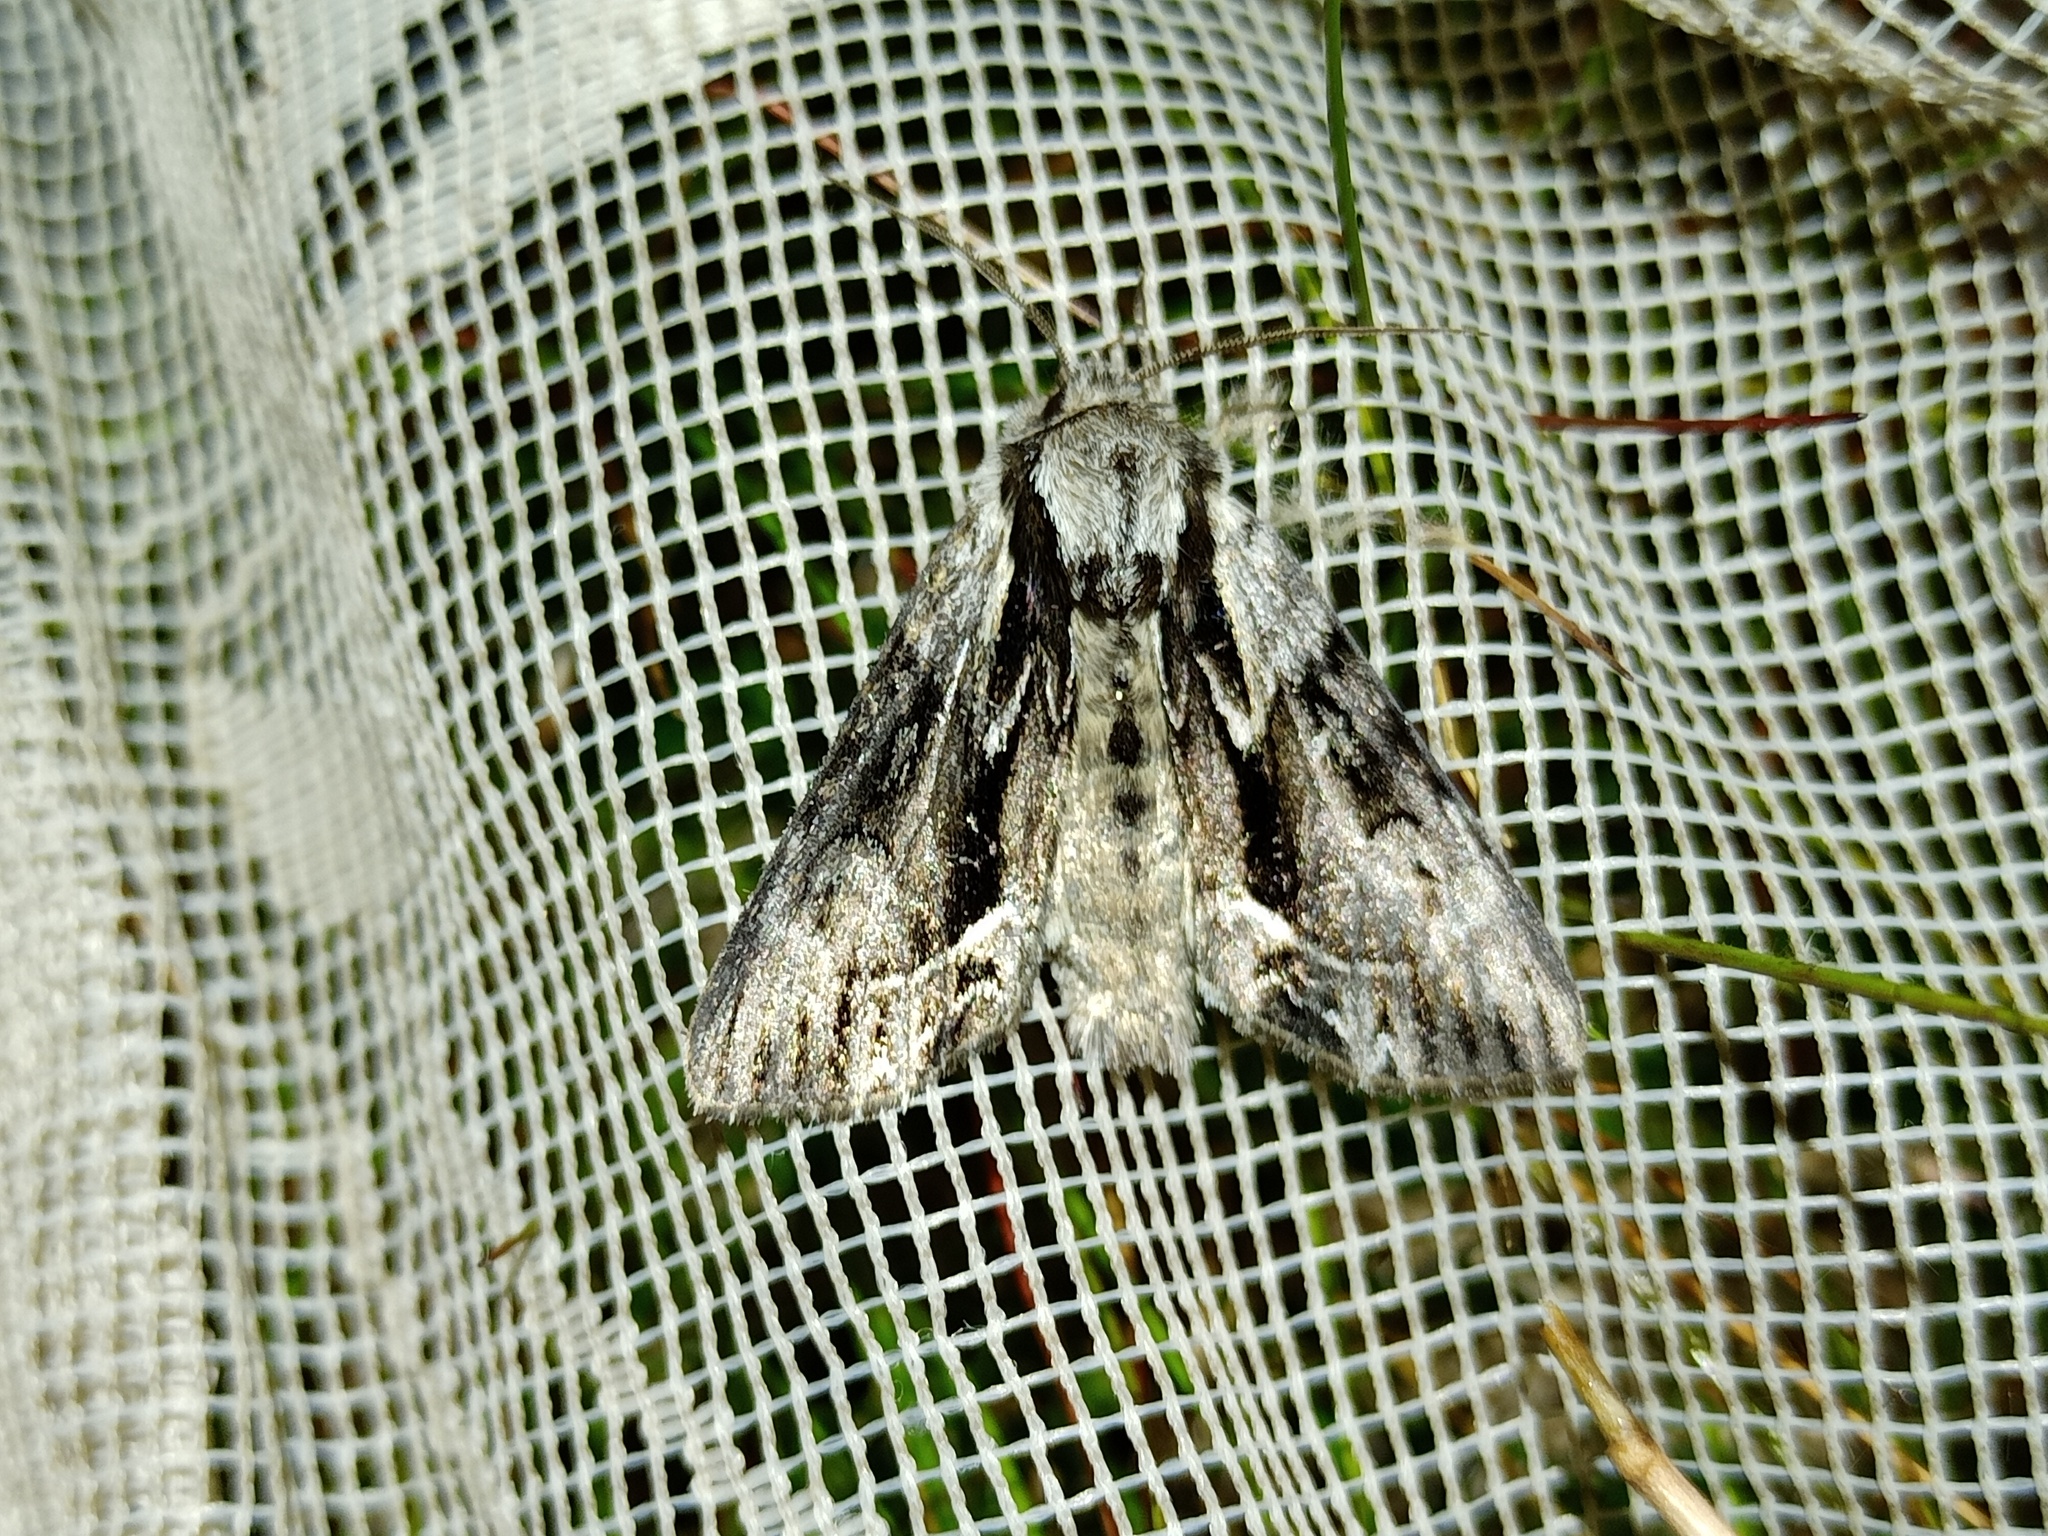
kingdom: Animalia
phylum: Arthropoda
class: Insecta
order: Lepidoptera
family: Noctuidae
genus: Hyppa
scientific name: Hyppa rectilinea
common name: Saxon
